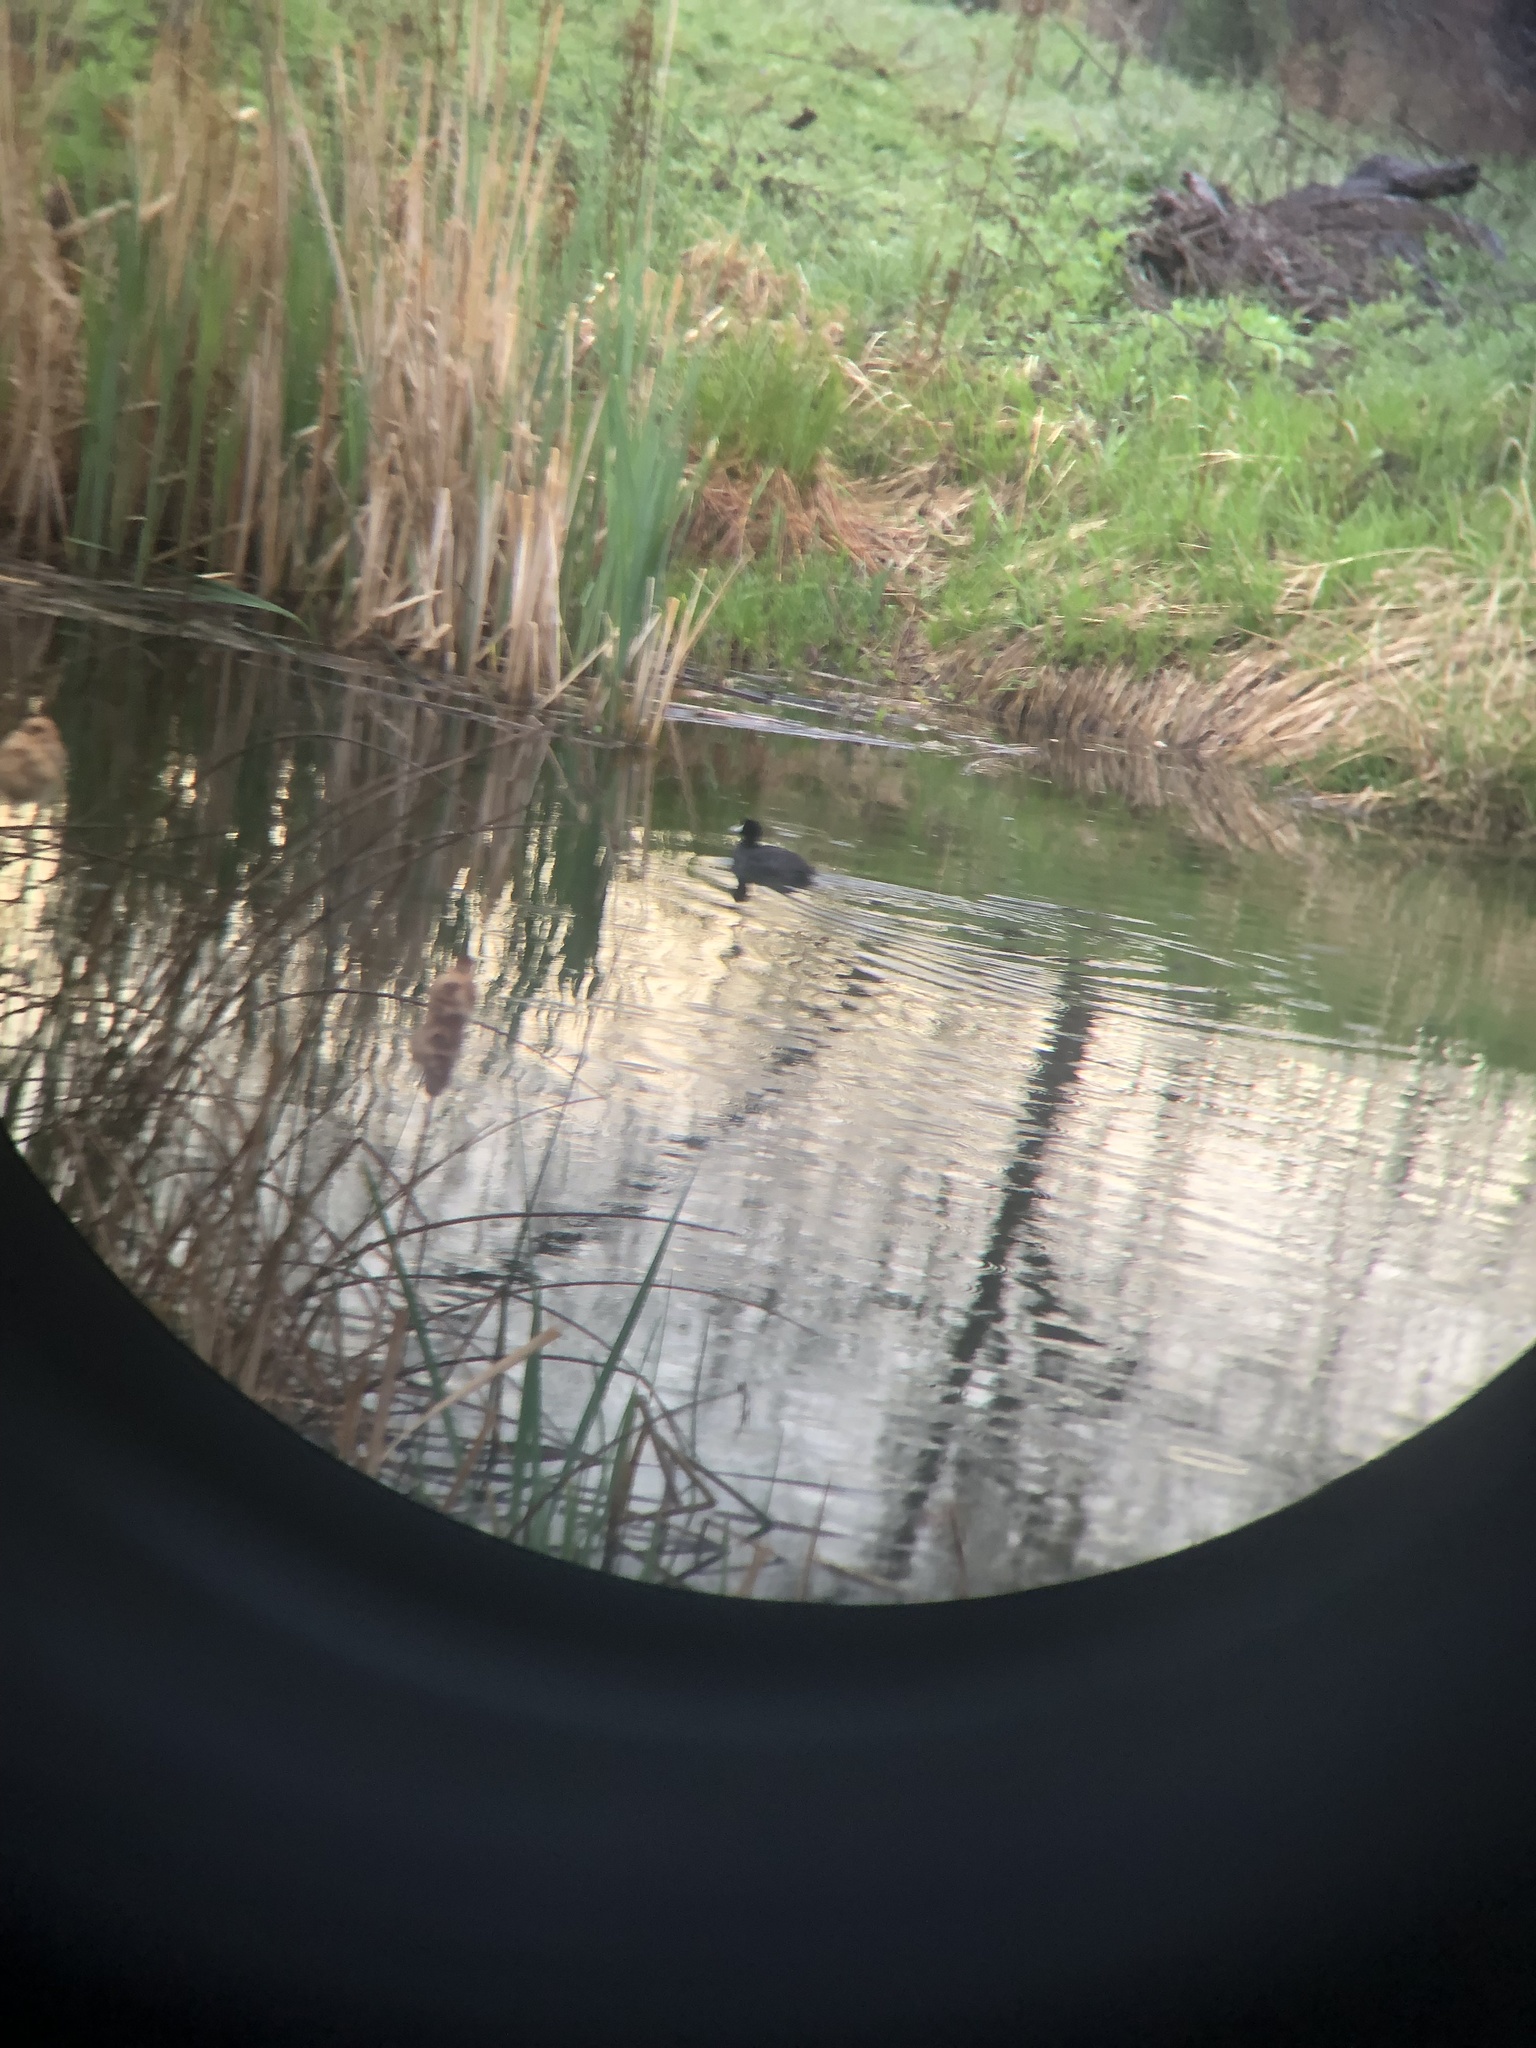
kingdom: Animalia
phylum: Chordata
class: Aves
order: Gruiformes
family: Rallidae
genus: Fulica
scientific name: Fulica americana
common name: American coot
